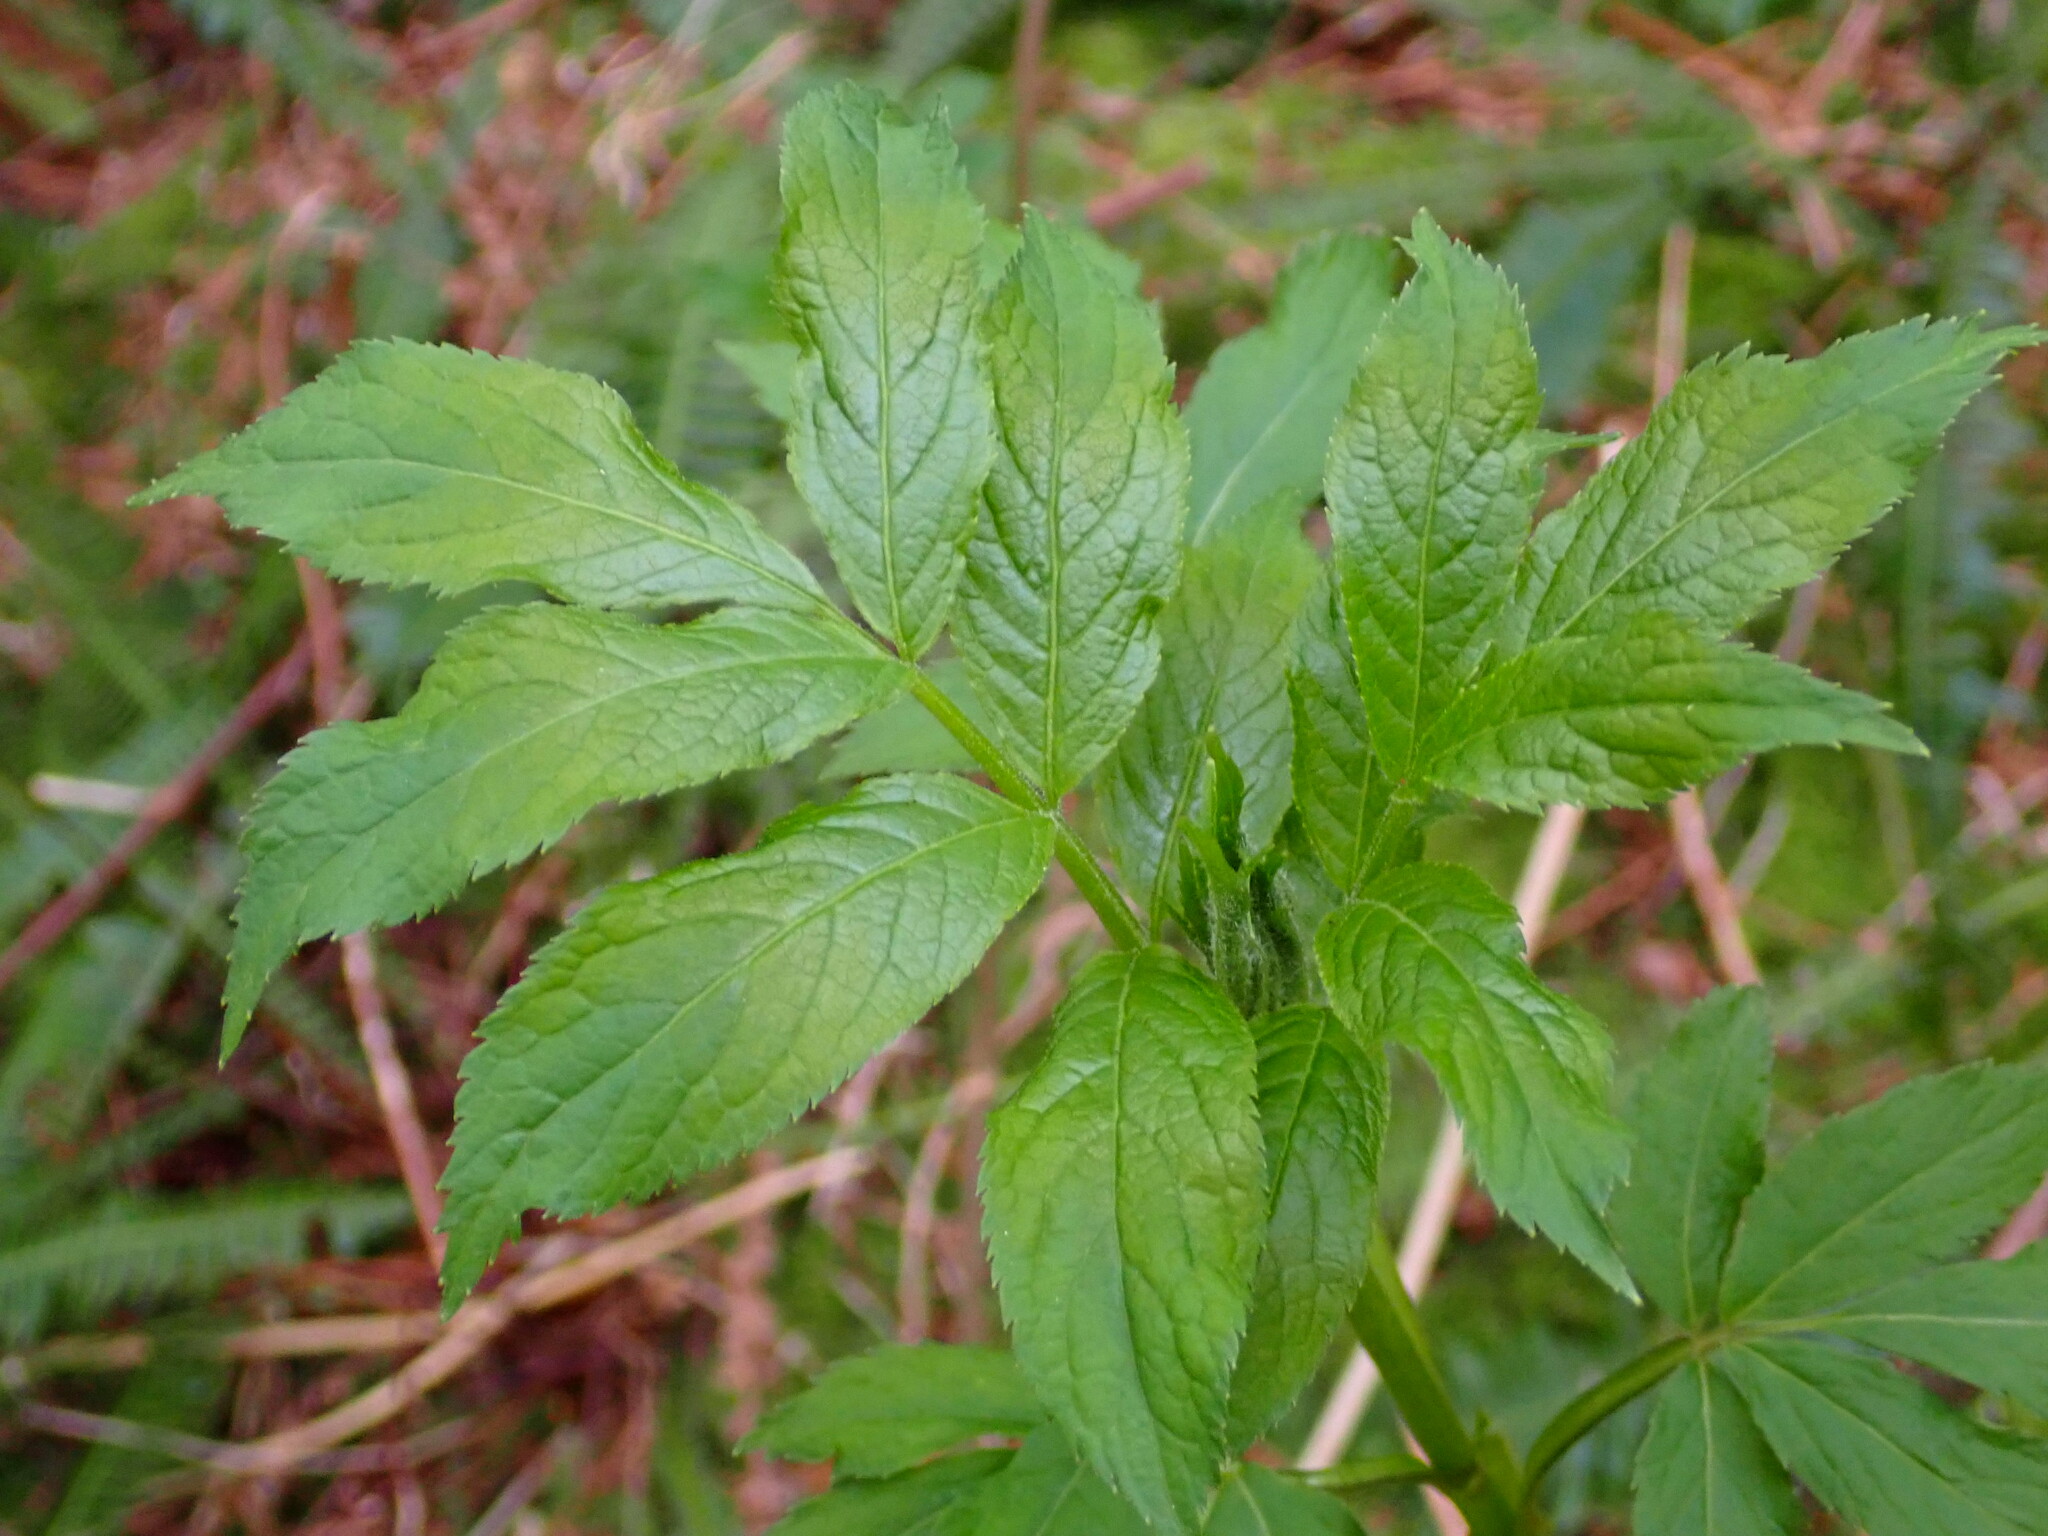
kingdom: Plantae
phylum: Tracheophyta
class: Magnoliopsida
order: Dipsacales
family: Viburnaceae
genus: Sambucus
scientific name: Sambucus racemosa
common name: Red-berried elder
